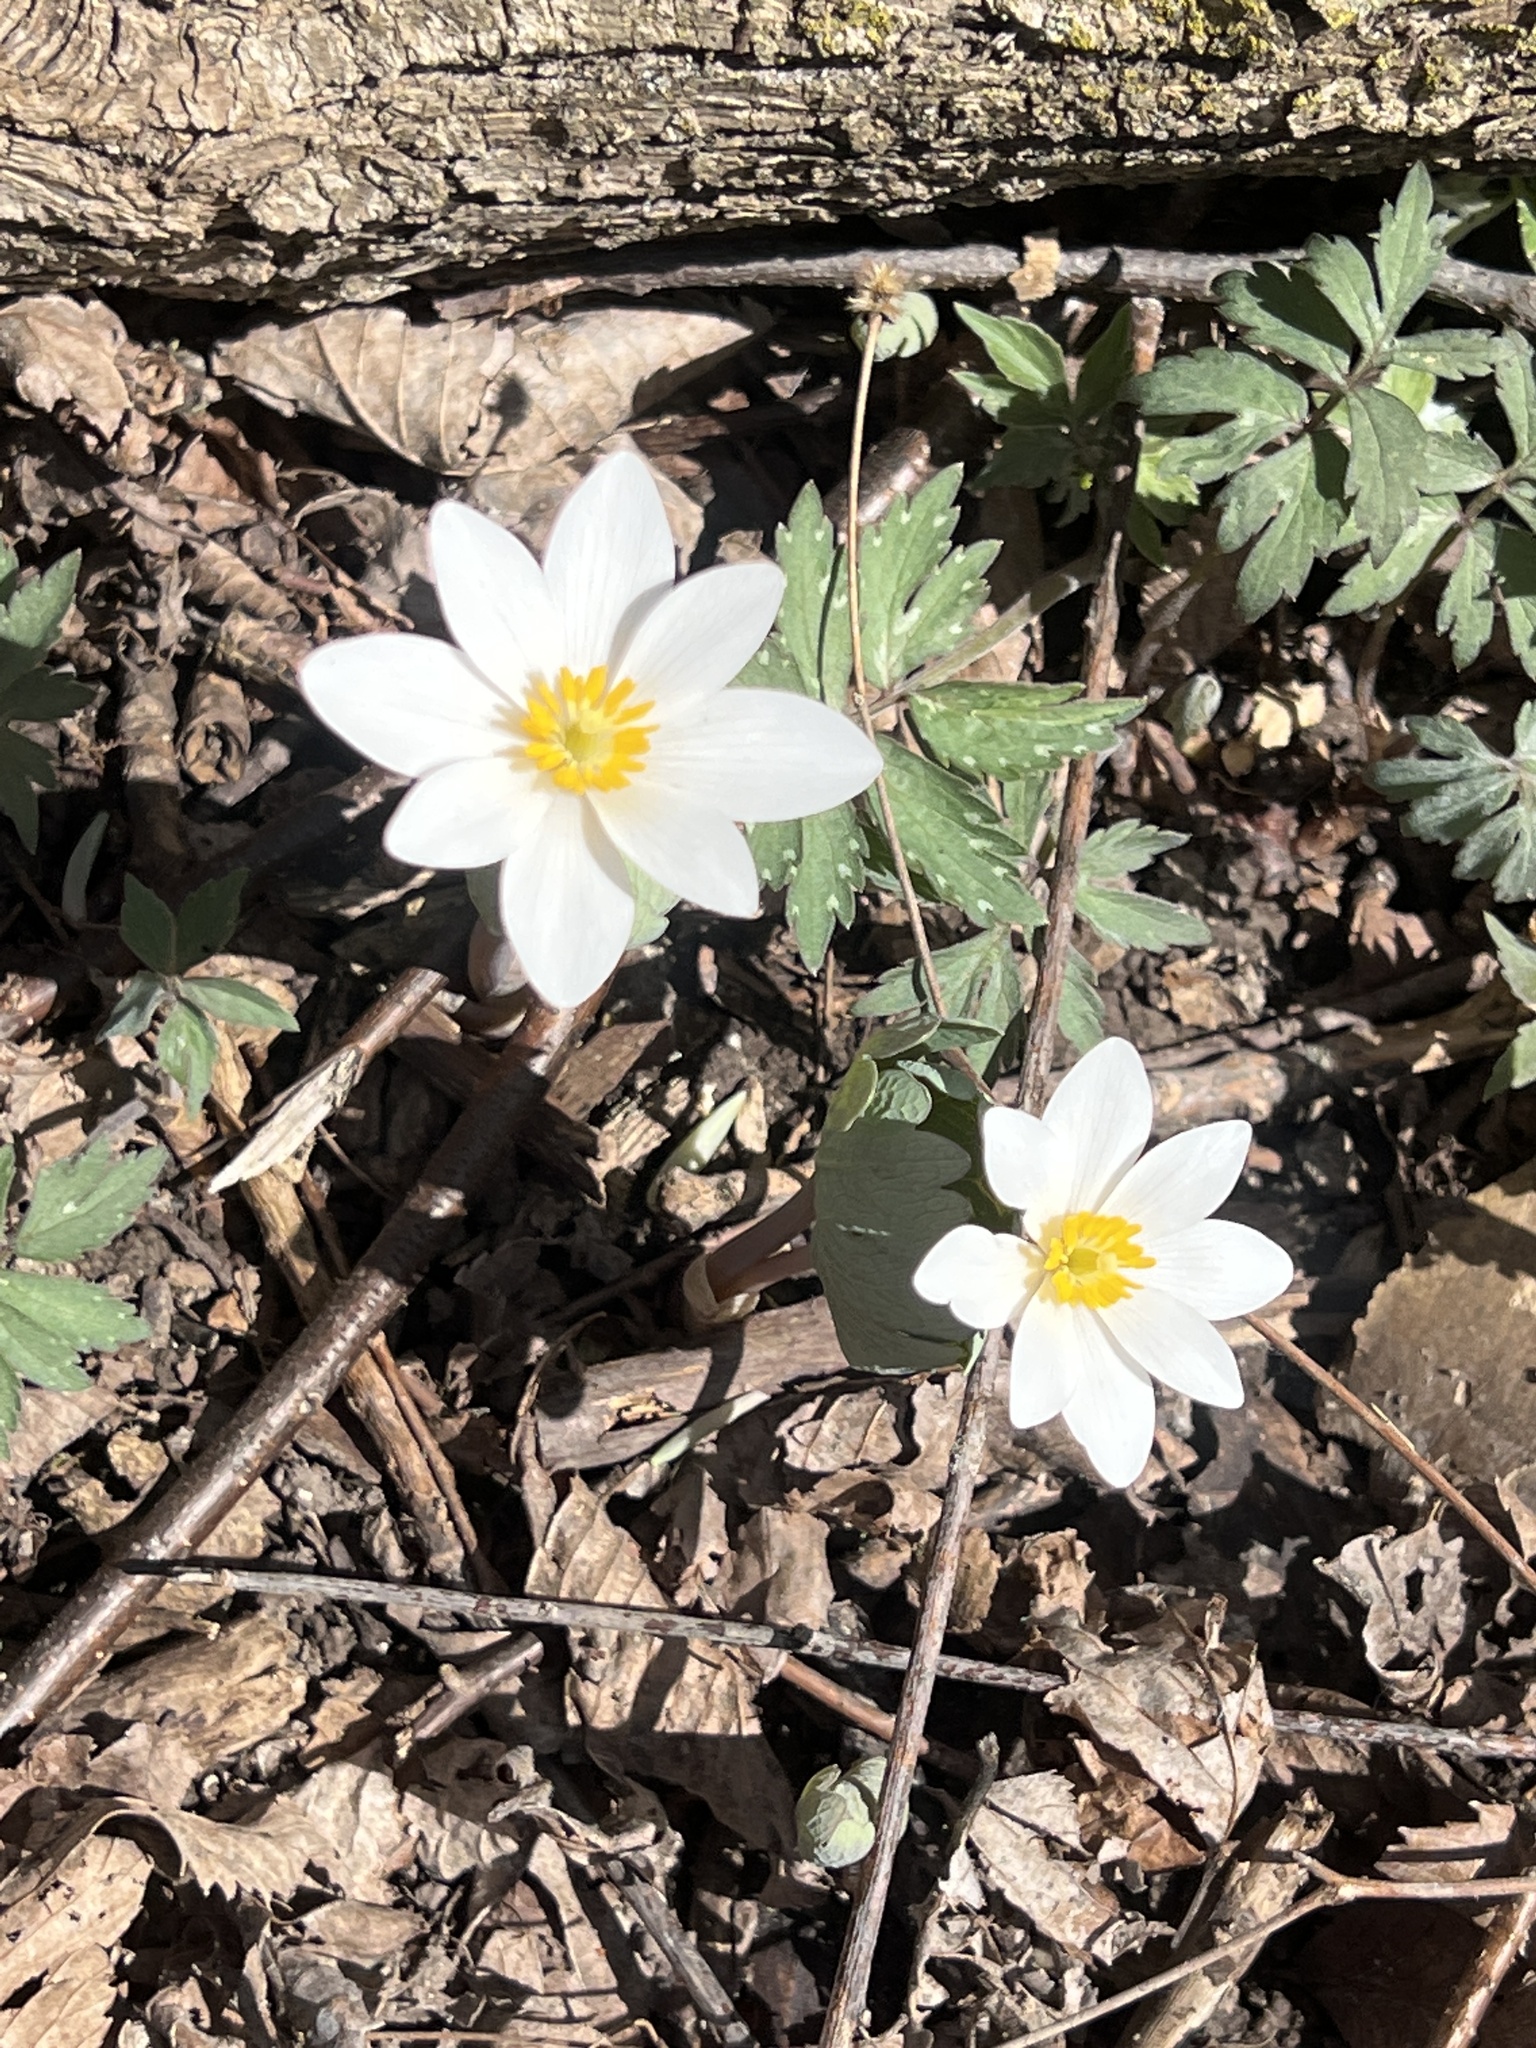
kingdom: Plantae
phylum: Tracheophyta
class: Magnoliopsida
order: Ranunculales
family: Papaveraceae
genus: Sanguinaria
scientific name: Sanguinaria canadensis
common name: Bloodroot
